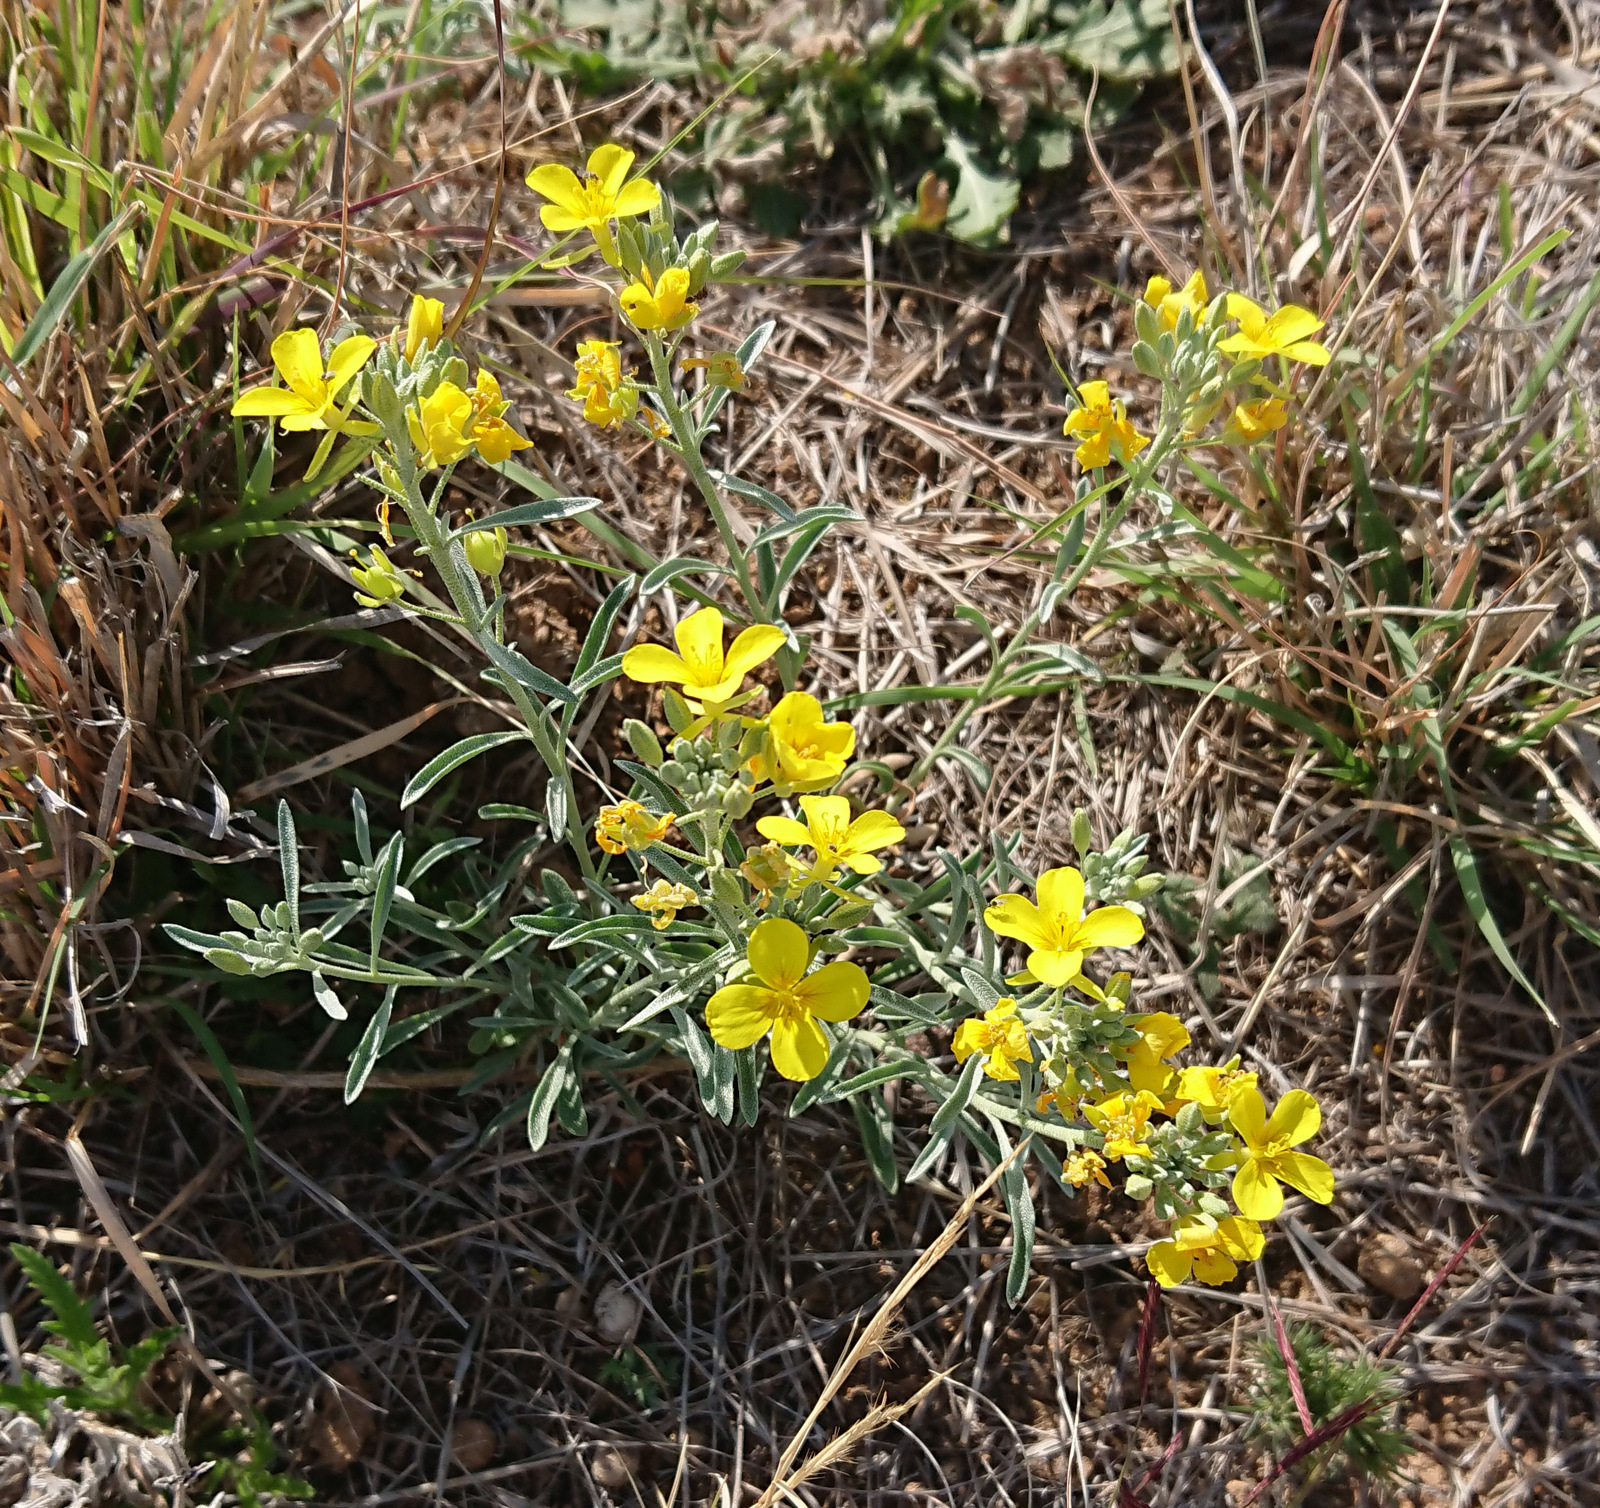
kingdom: Plantae
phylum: Tracheophyta
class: Magnoliopsida
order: Brassicales
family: Brassicaceae
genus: Physaria
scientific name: Physaria fendleri
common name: Fendler's bladderpod
